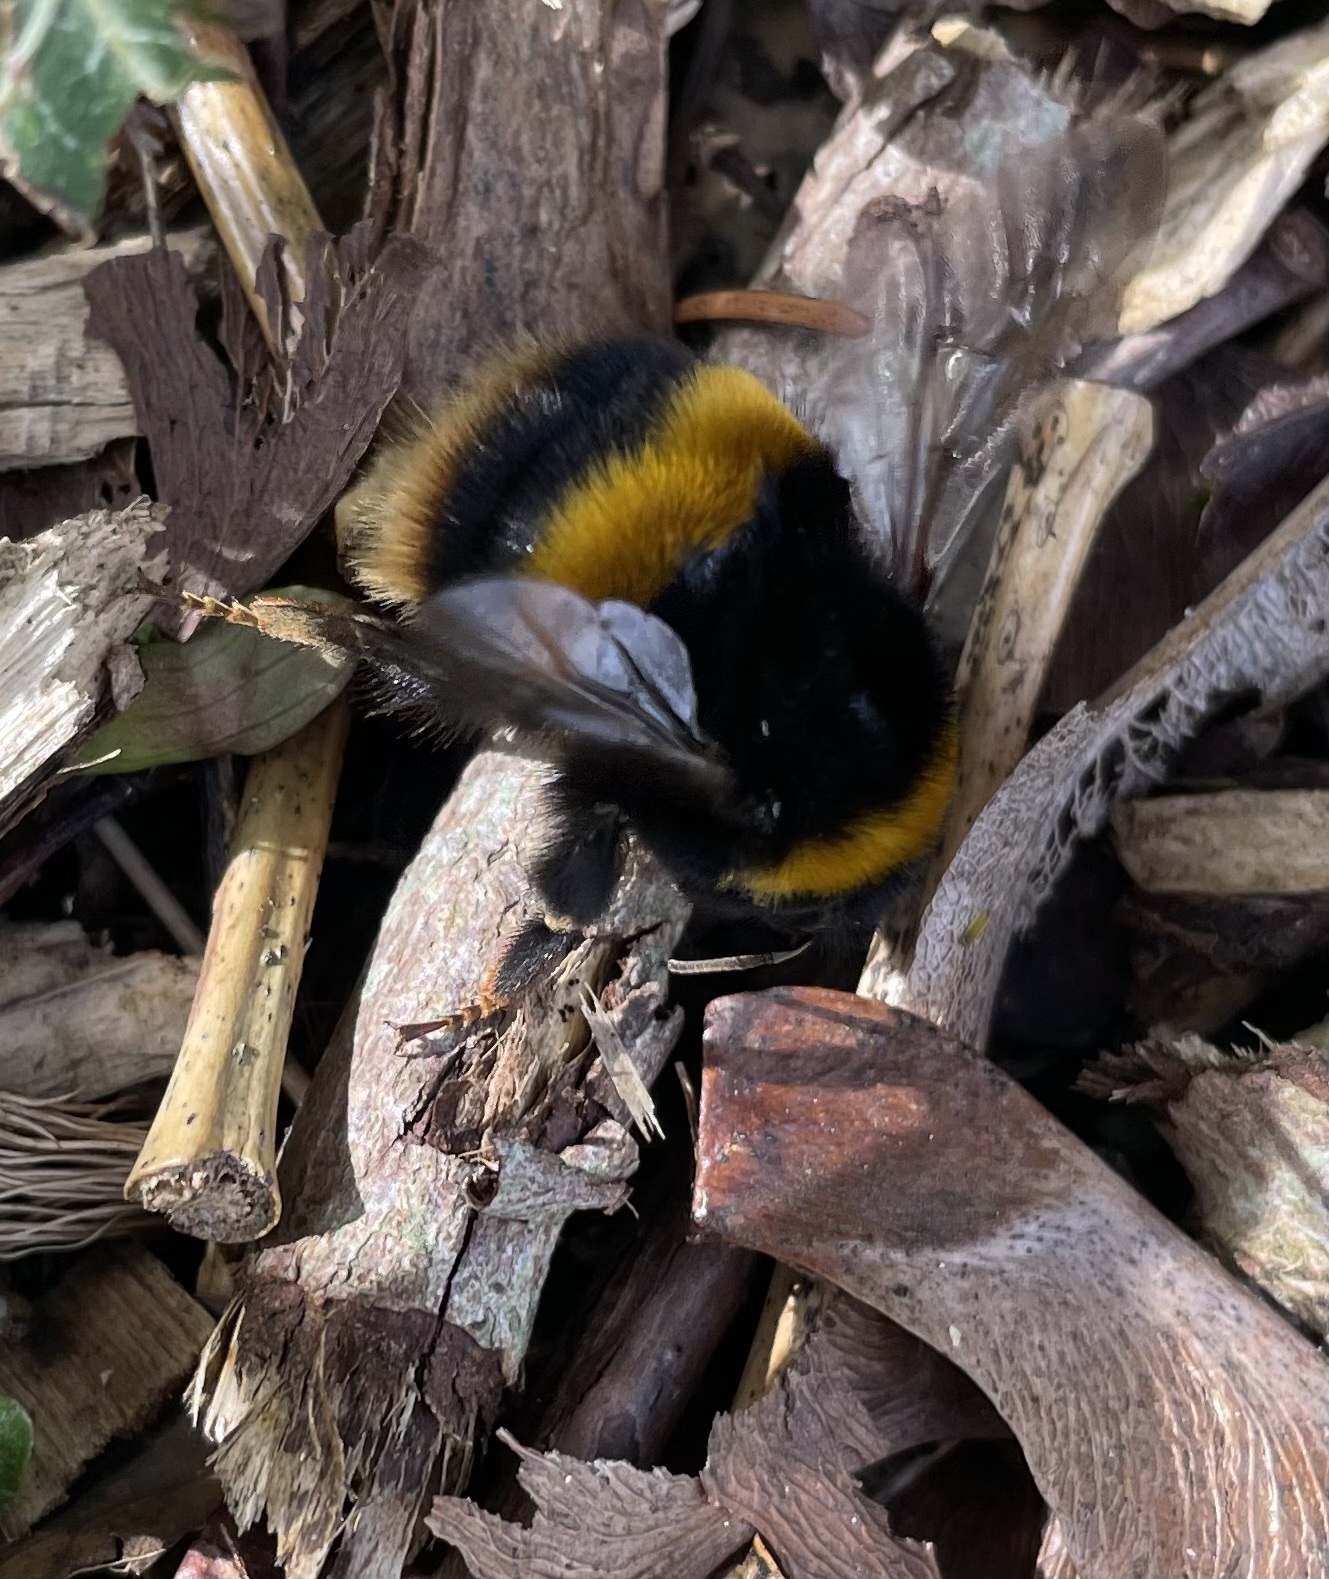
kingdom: Animalia
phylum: Arthropoda
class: Insecta
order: Hymenoptera
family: Apidae
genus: Bombus
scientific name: Bombus terrestris
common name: Buff-tailed bumblebee
